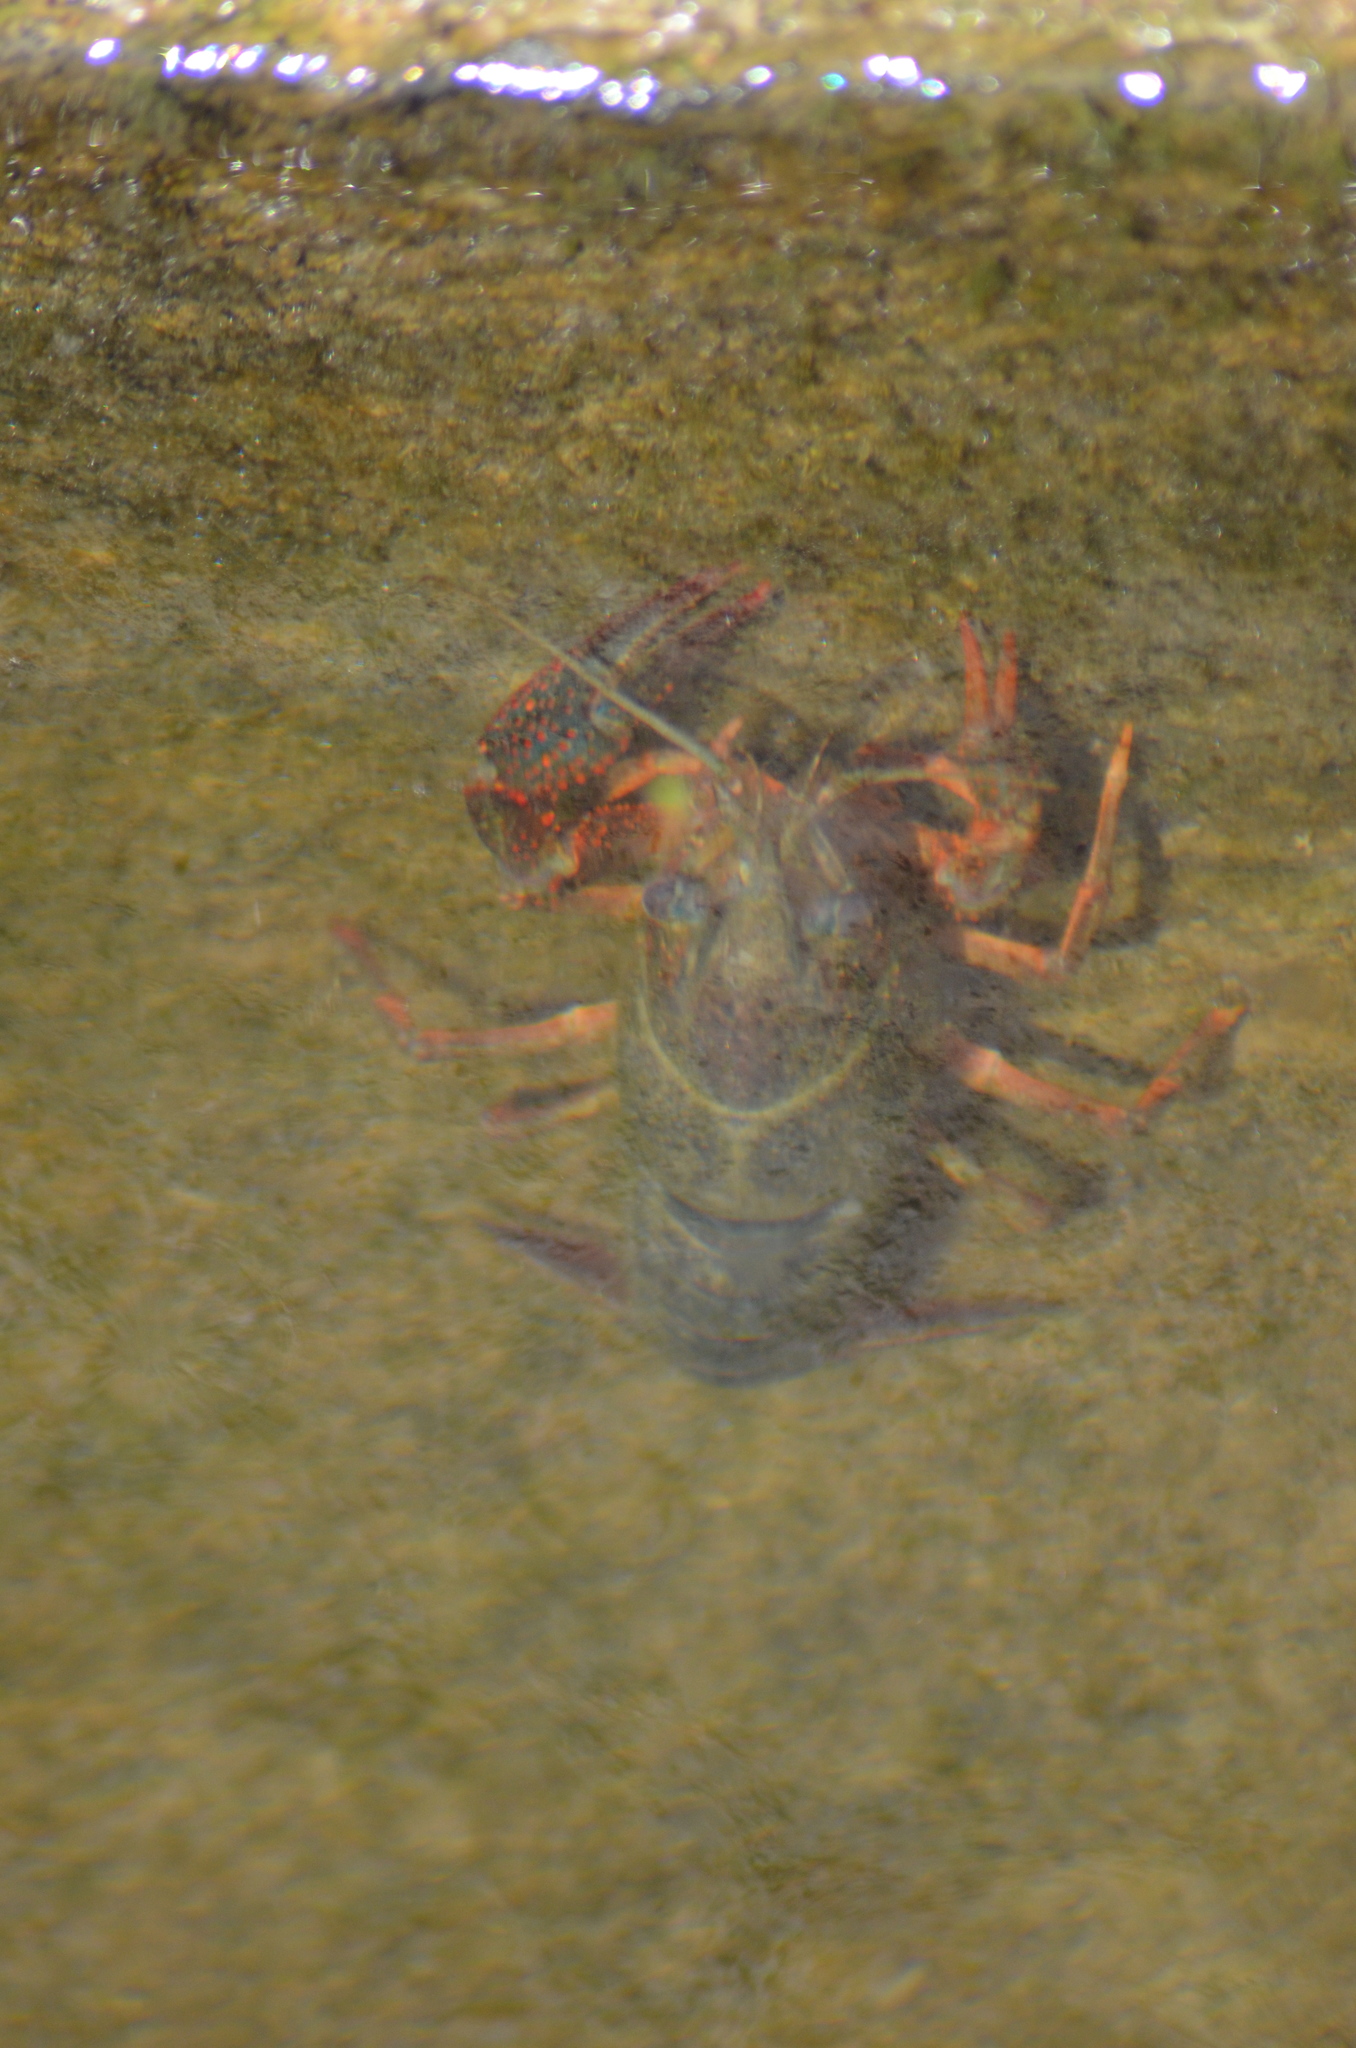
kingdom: Animalia
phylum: Arthropoda
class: Malacostraca
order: Decapoda
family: Cambaridae
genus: Procambarus
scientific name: Procambarus clarkii
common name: Red swamp crayfish
